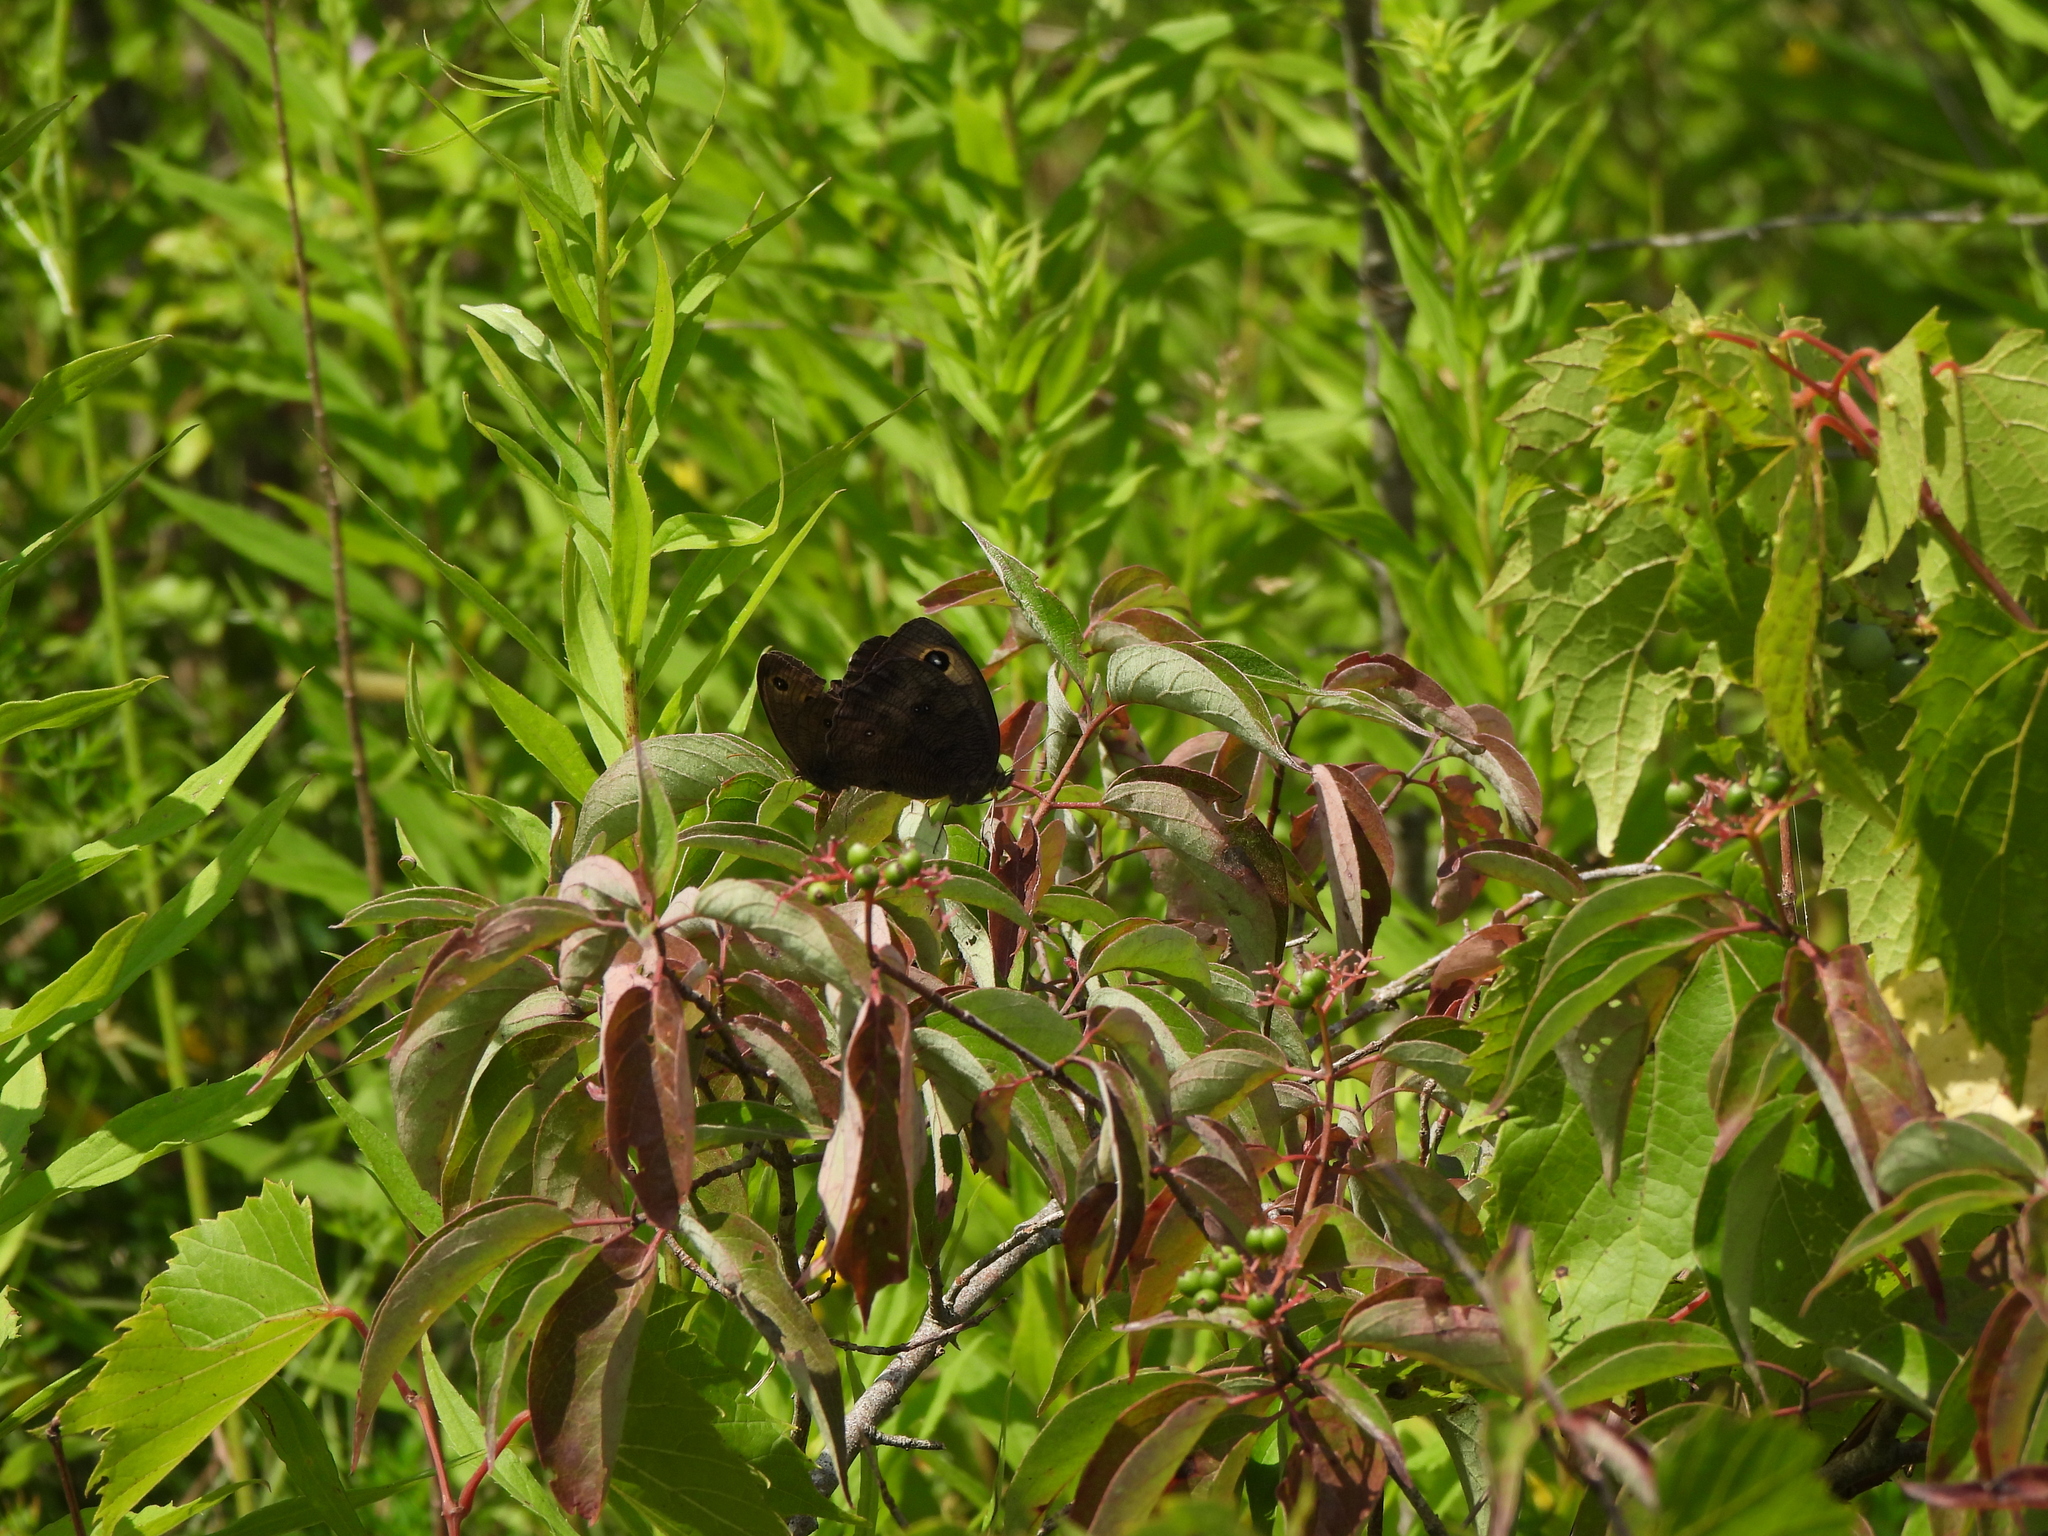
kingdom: Animalia
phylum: Arthropoda
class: Insecta
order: Lepidoptera
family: Nymphalidae
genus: Cercyonis
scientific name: Cercyonis pegala
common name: Common wood-nymph
